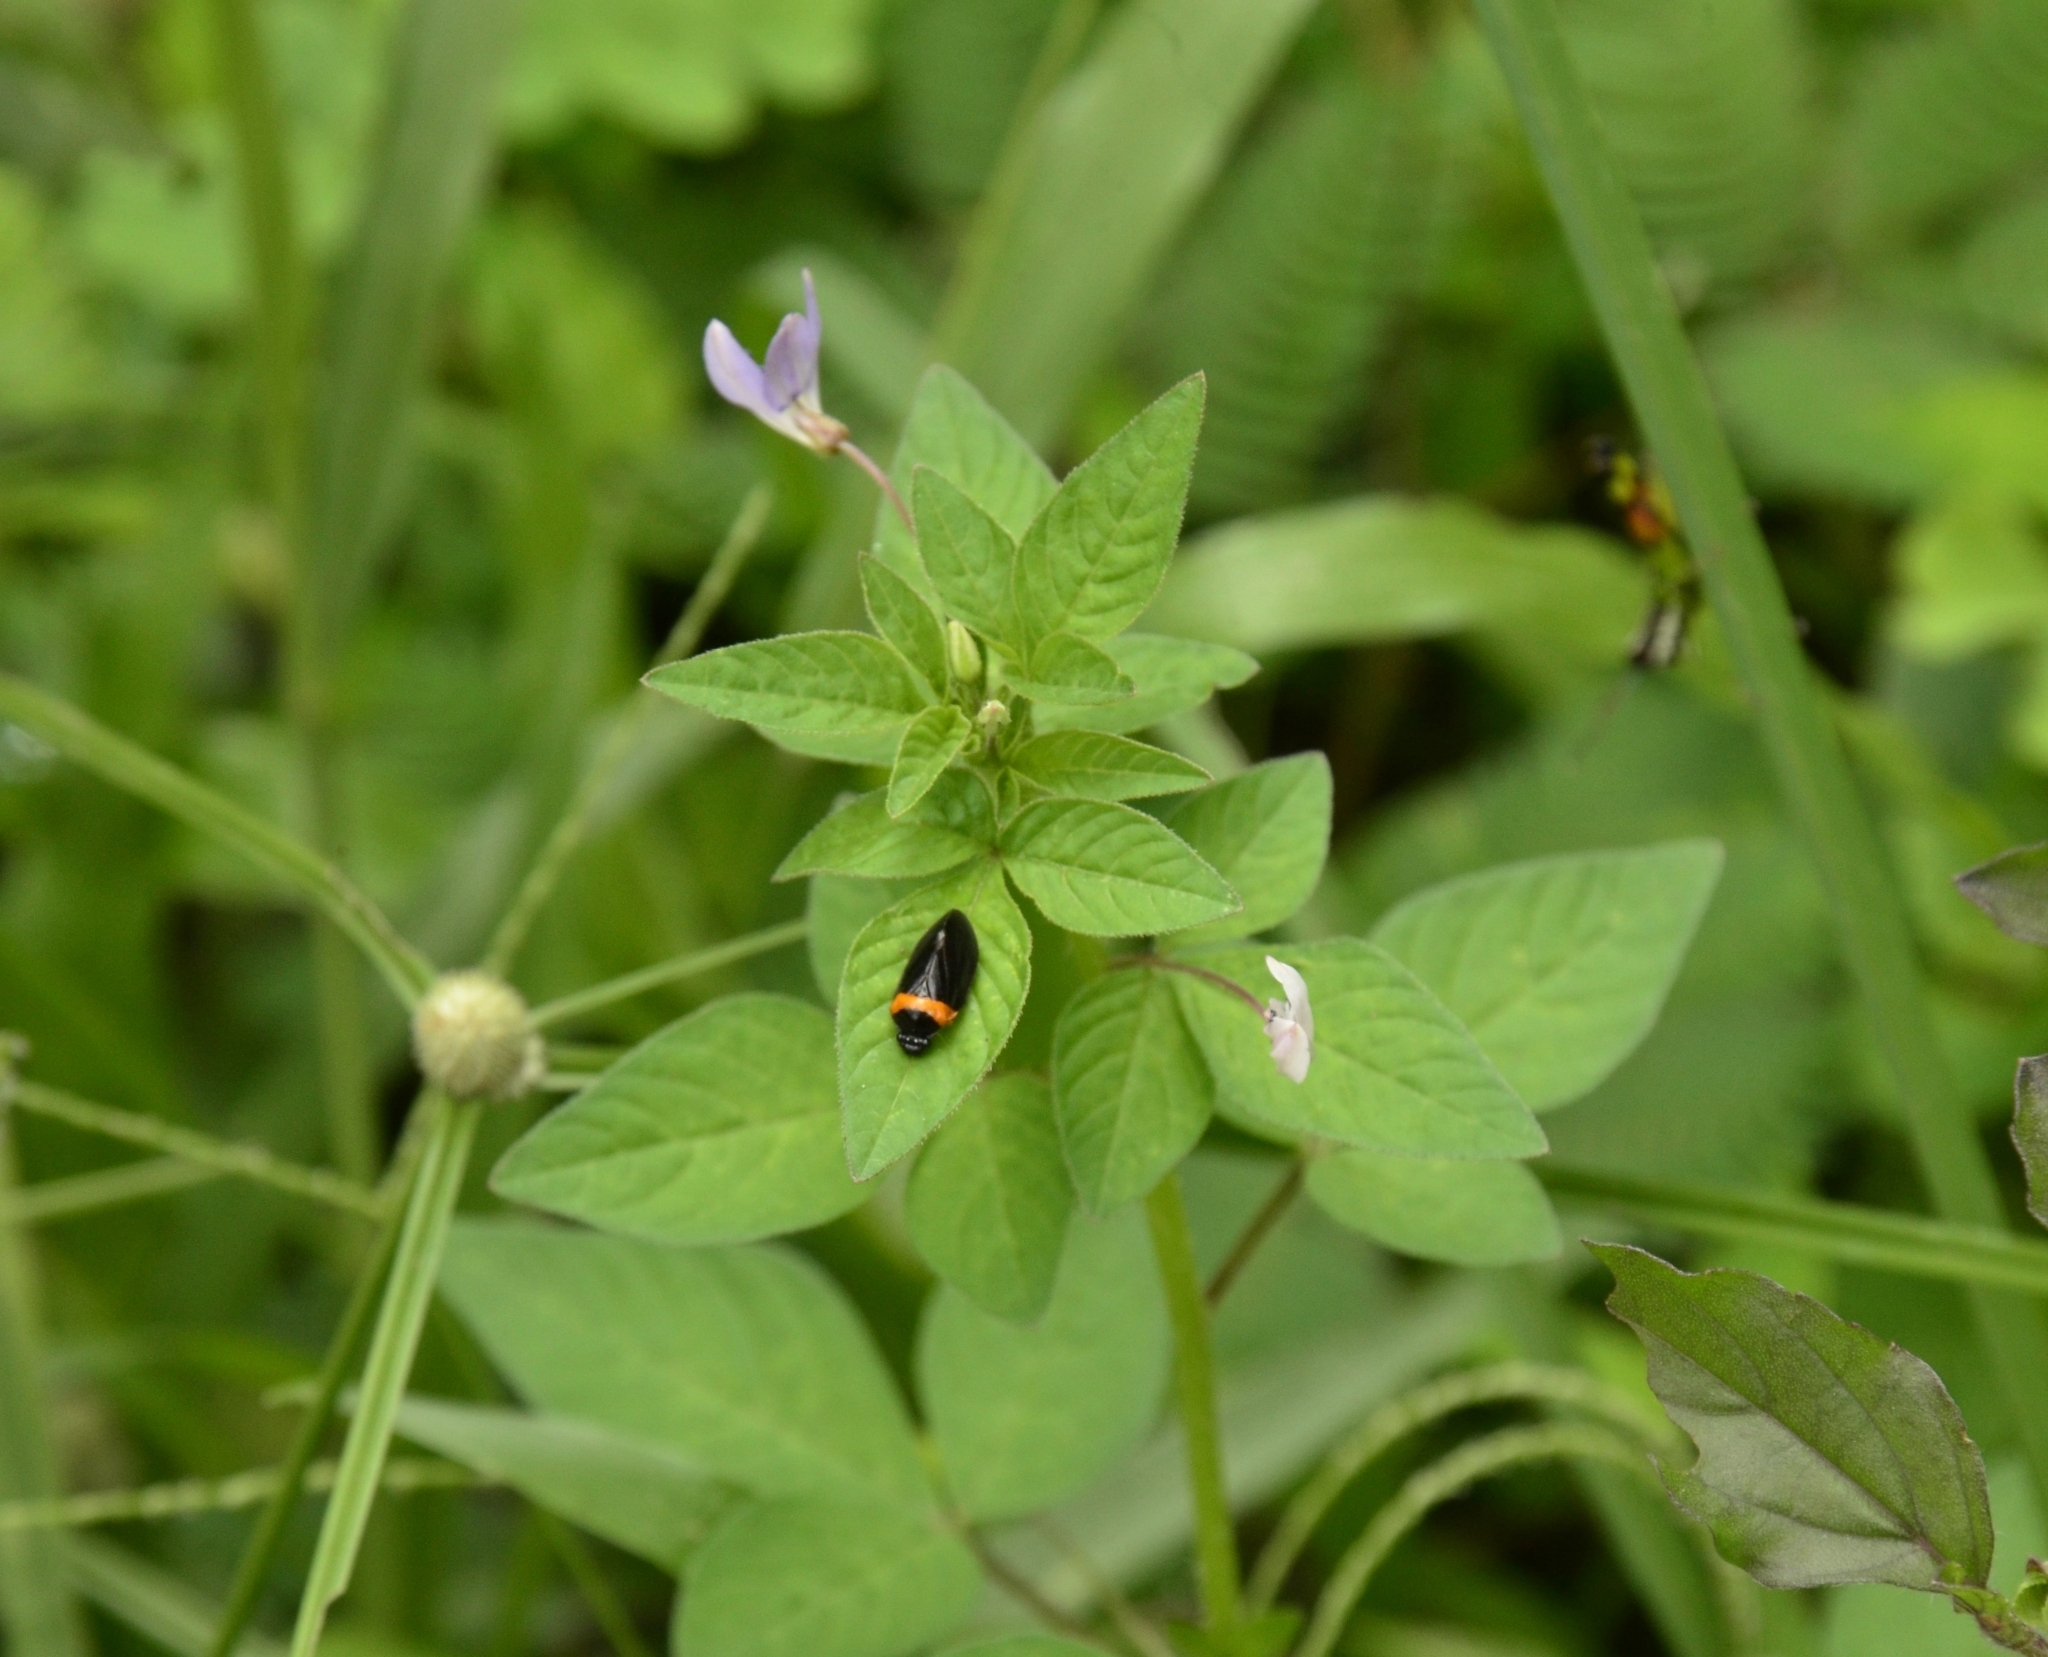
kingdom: Plantae
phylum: Tracheophyta
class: Magnoliopsida
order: Brassicales
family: Cleomaceae
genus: Sieruela
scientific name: Sieruela rutidosperma
